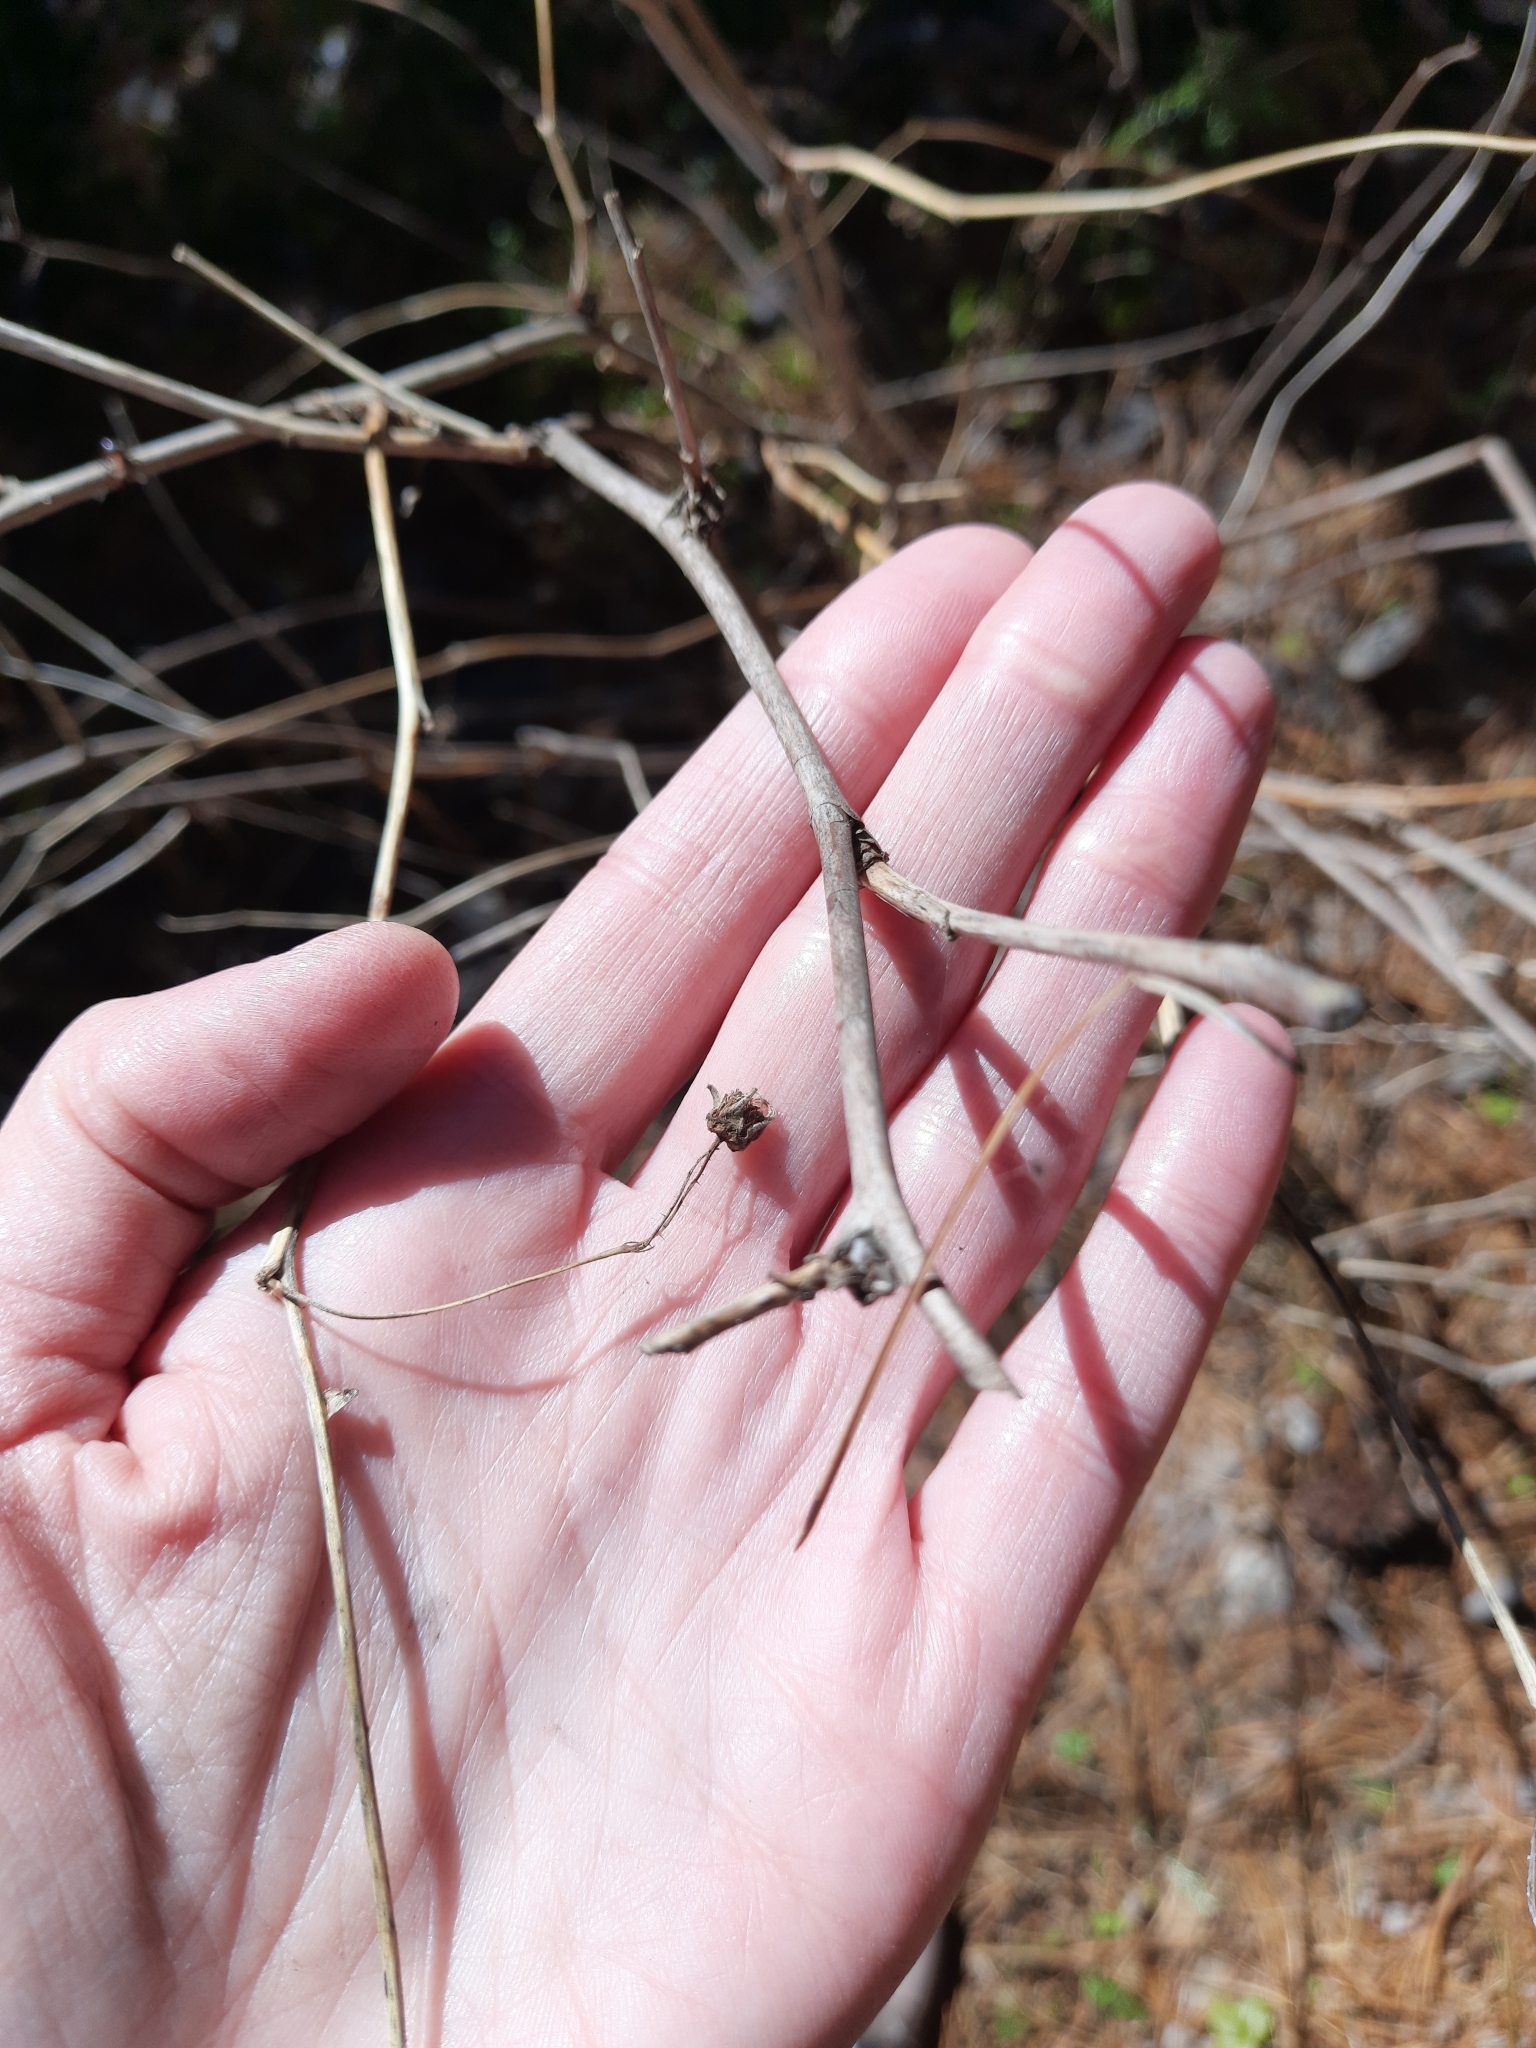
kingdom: Plantae
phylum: Tracheophyta
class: Magnoliopsida
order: Rosales
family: Rosaceae
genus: Rubus
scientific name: Rubus idaeus
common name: Raspberry
